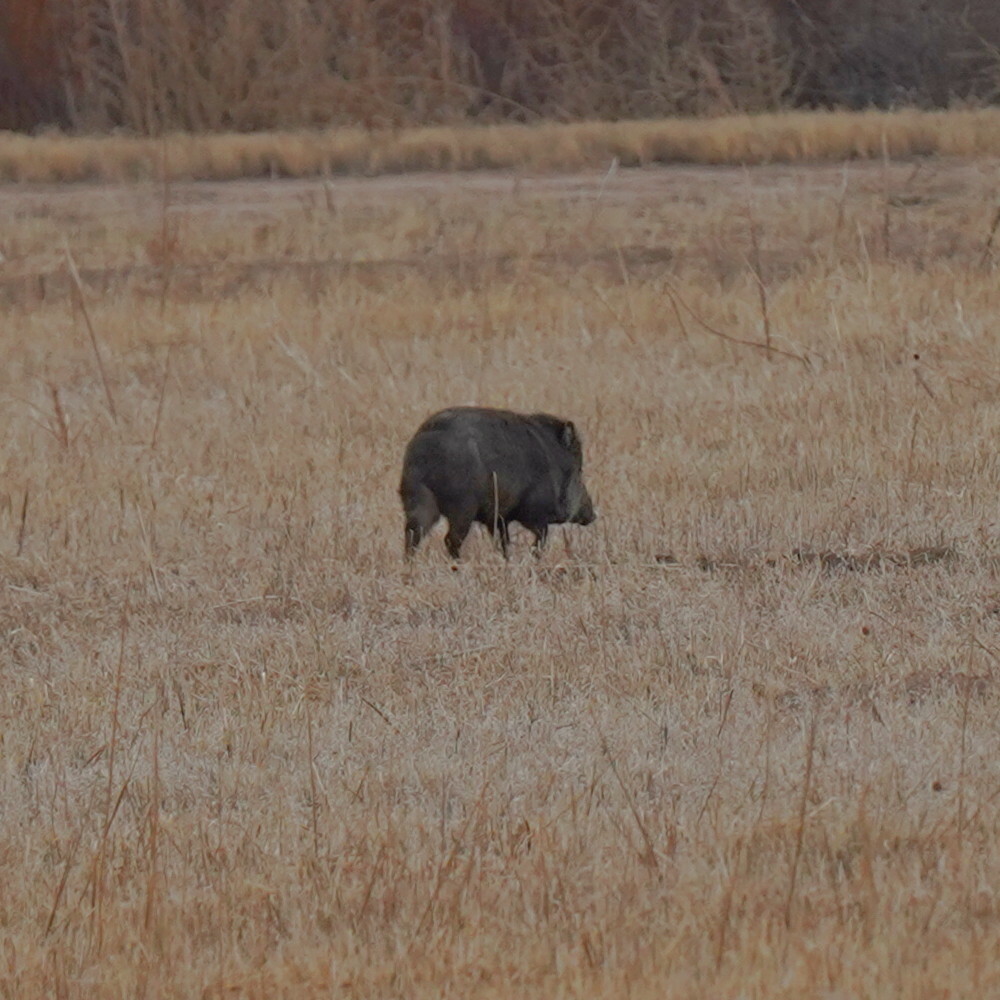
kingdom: Animalia
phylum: Chordata
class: Mammalia
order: Artiodactyla
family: Tayassuidae
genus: Pecari
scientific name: Pecari tajacu
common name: Collared peccary
